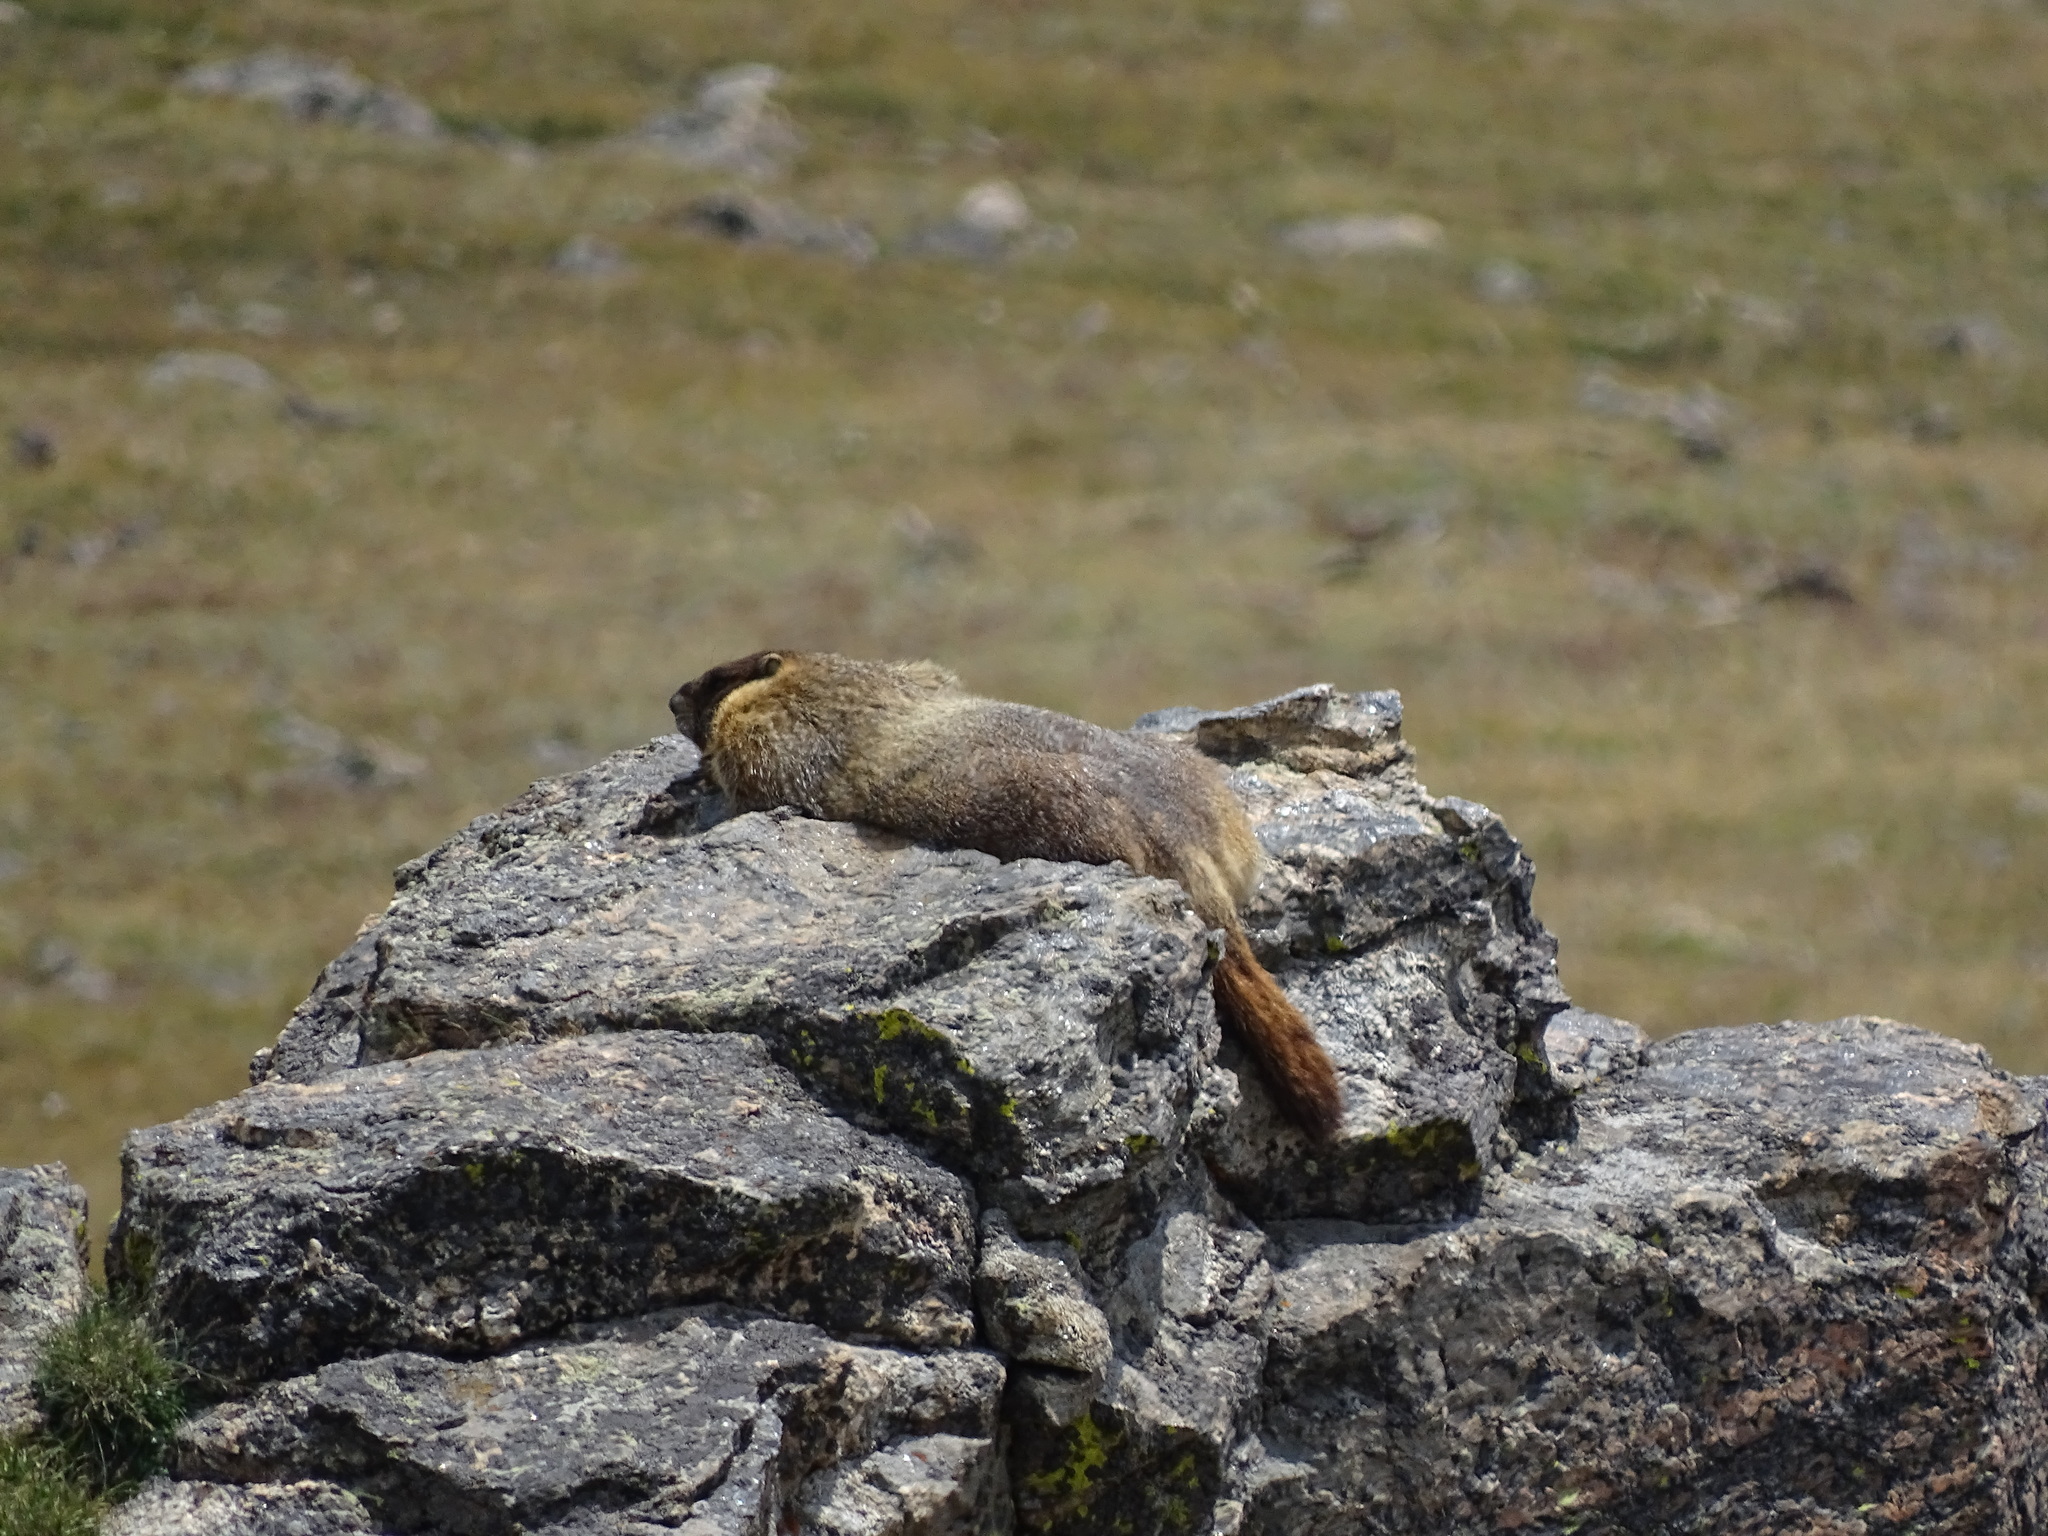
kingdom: Animalia
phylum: Chordata
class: Mammalia
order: Rodentia
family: Sciuridae
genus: Marmota
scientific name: Marmota flaviventris
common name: Yellow-bellied marmot
